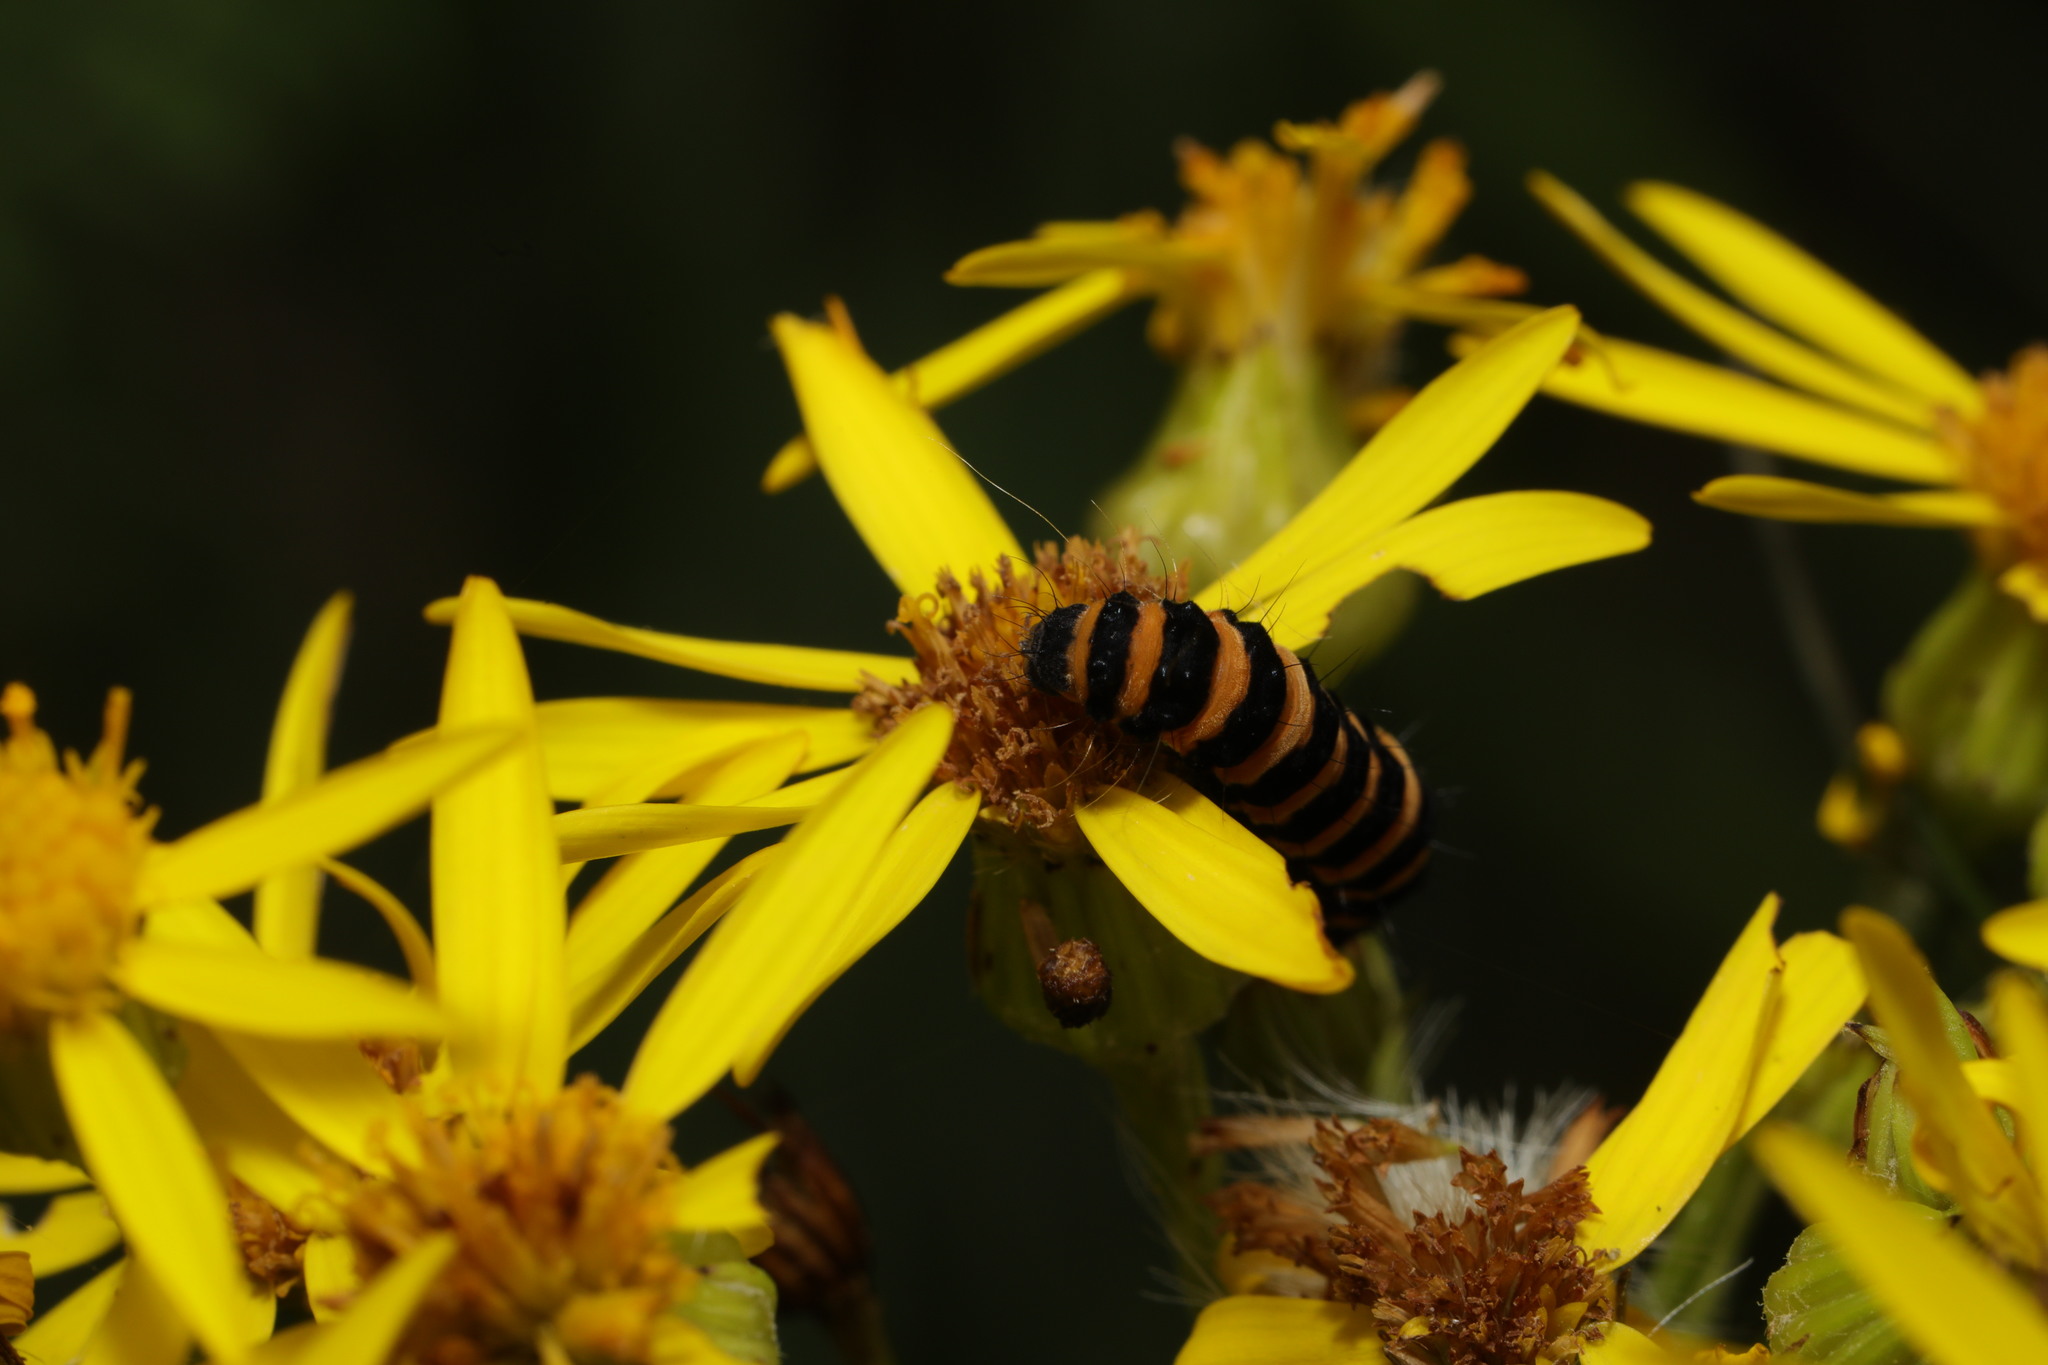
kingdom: Animalia
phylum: Arthropoda
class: Insecta
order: Lepidoptera
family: Erebidae
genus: Tyria
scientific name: Tyria jacobaeae
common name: Cinnabar
